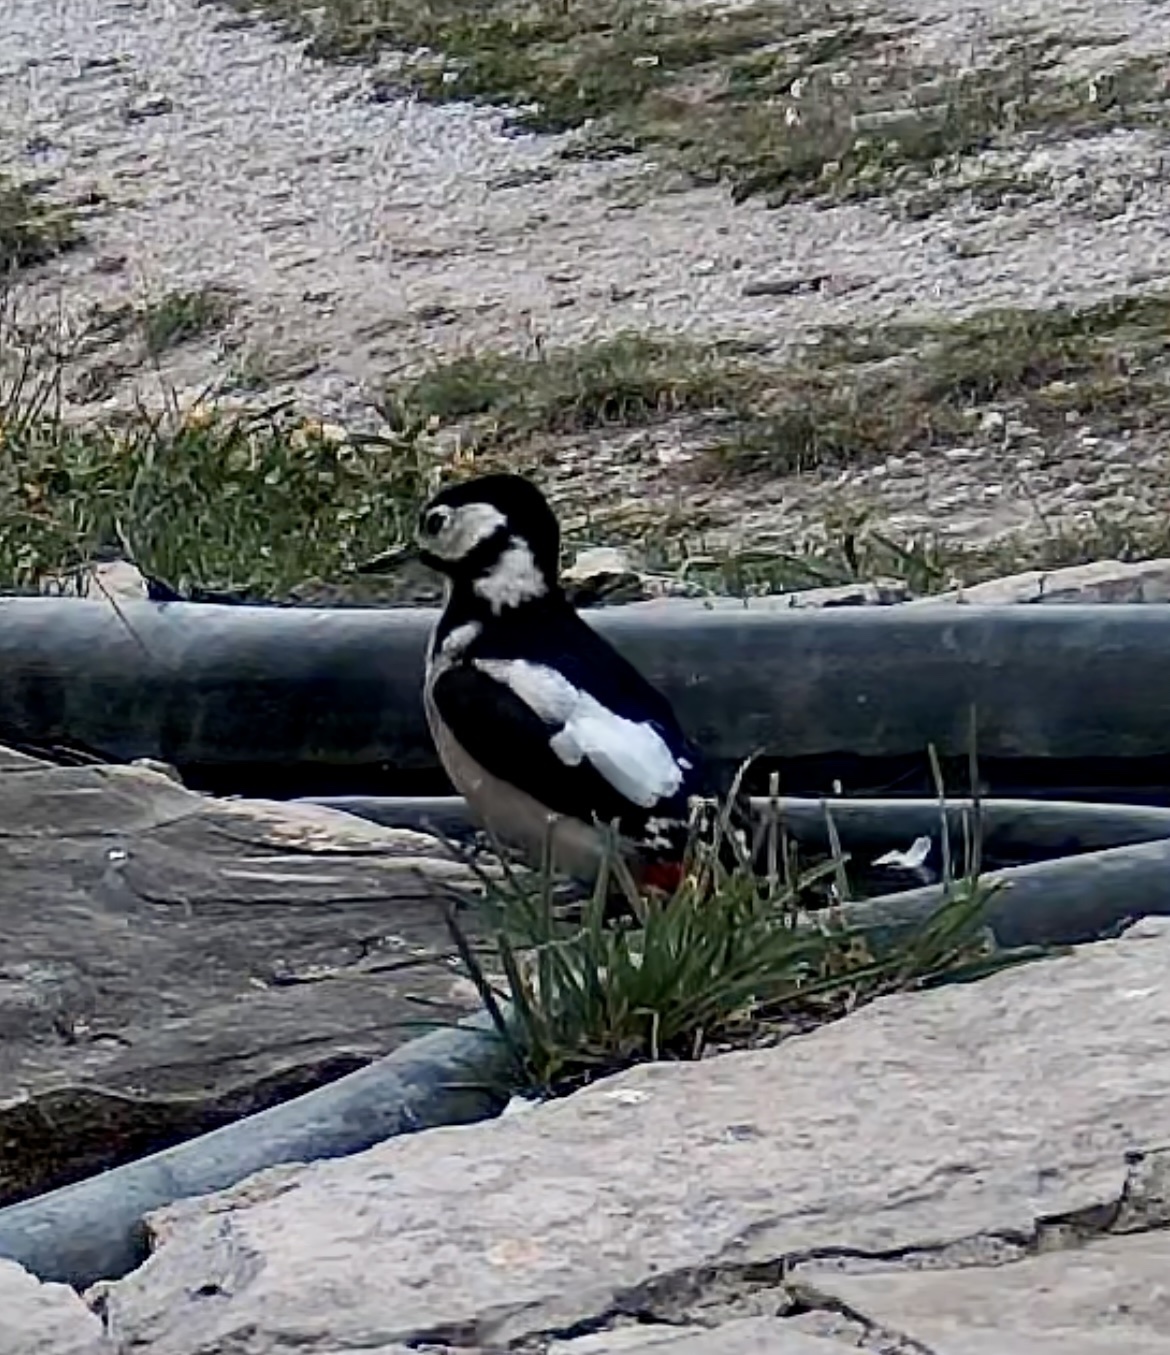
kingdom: Animalia
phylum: Chordata
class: Aves
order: Piciformes
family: Picidae
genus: Dendrocopos
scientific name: Dendrocopos major
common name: Great spotted woodpecker
